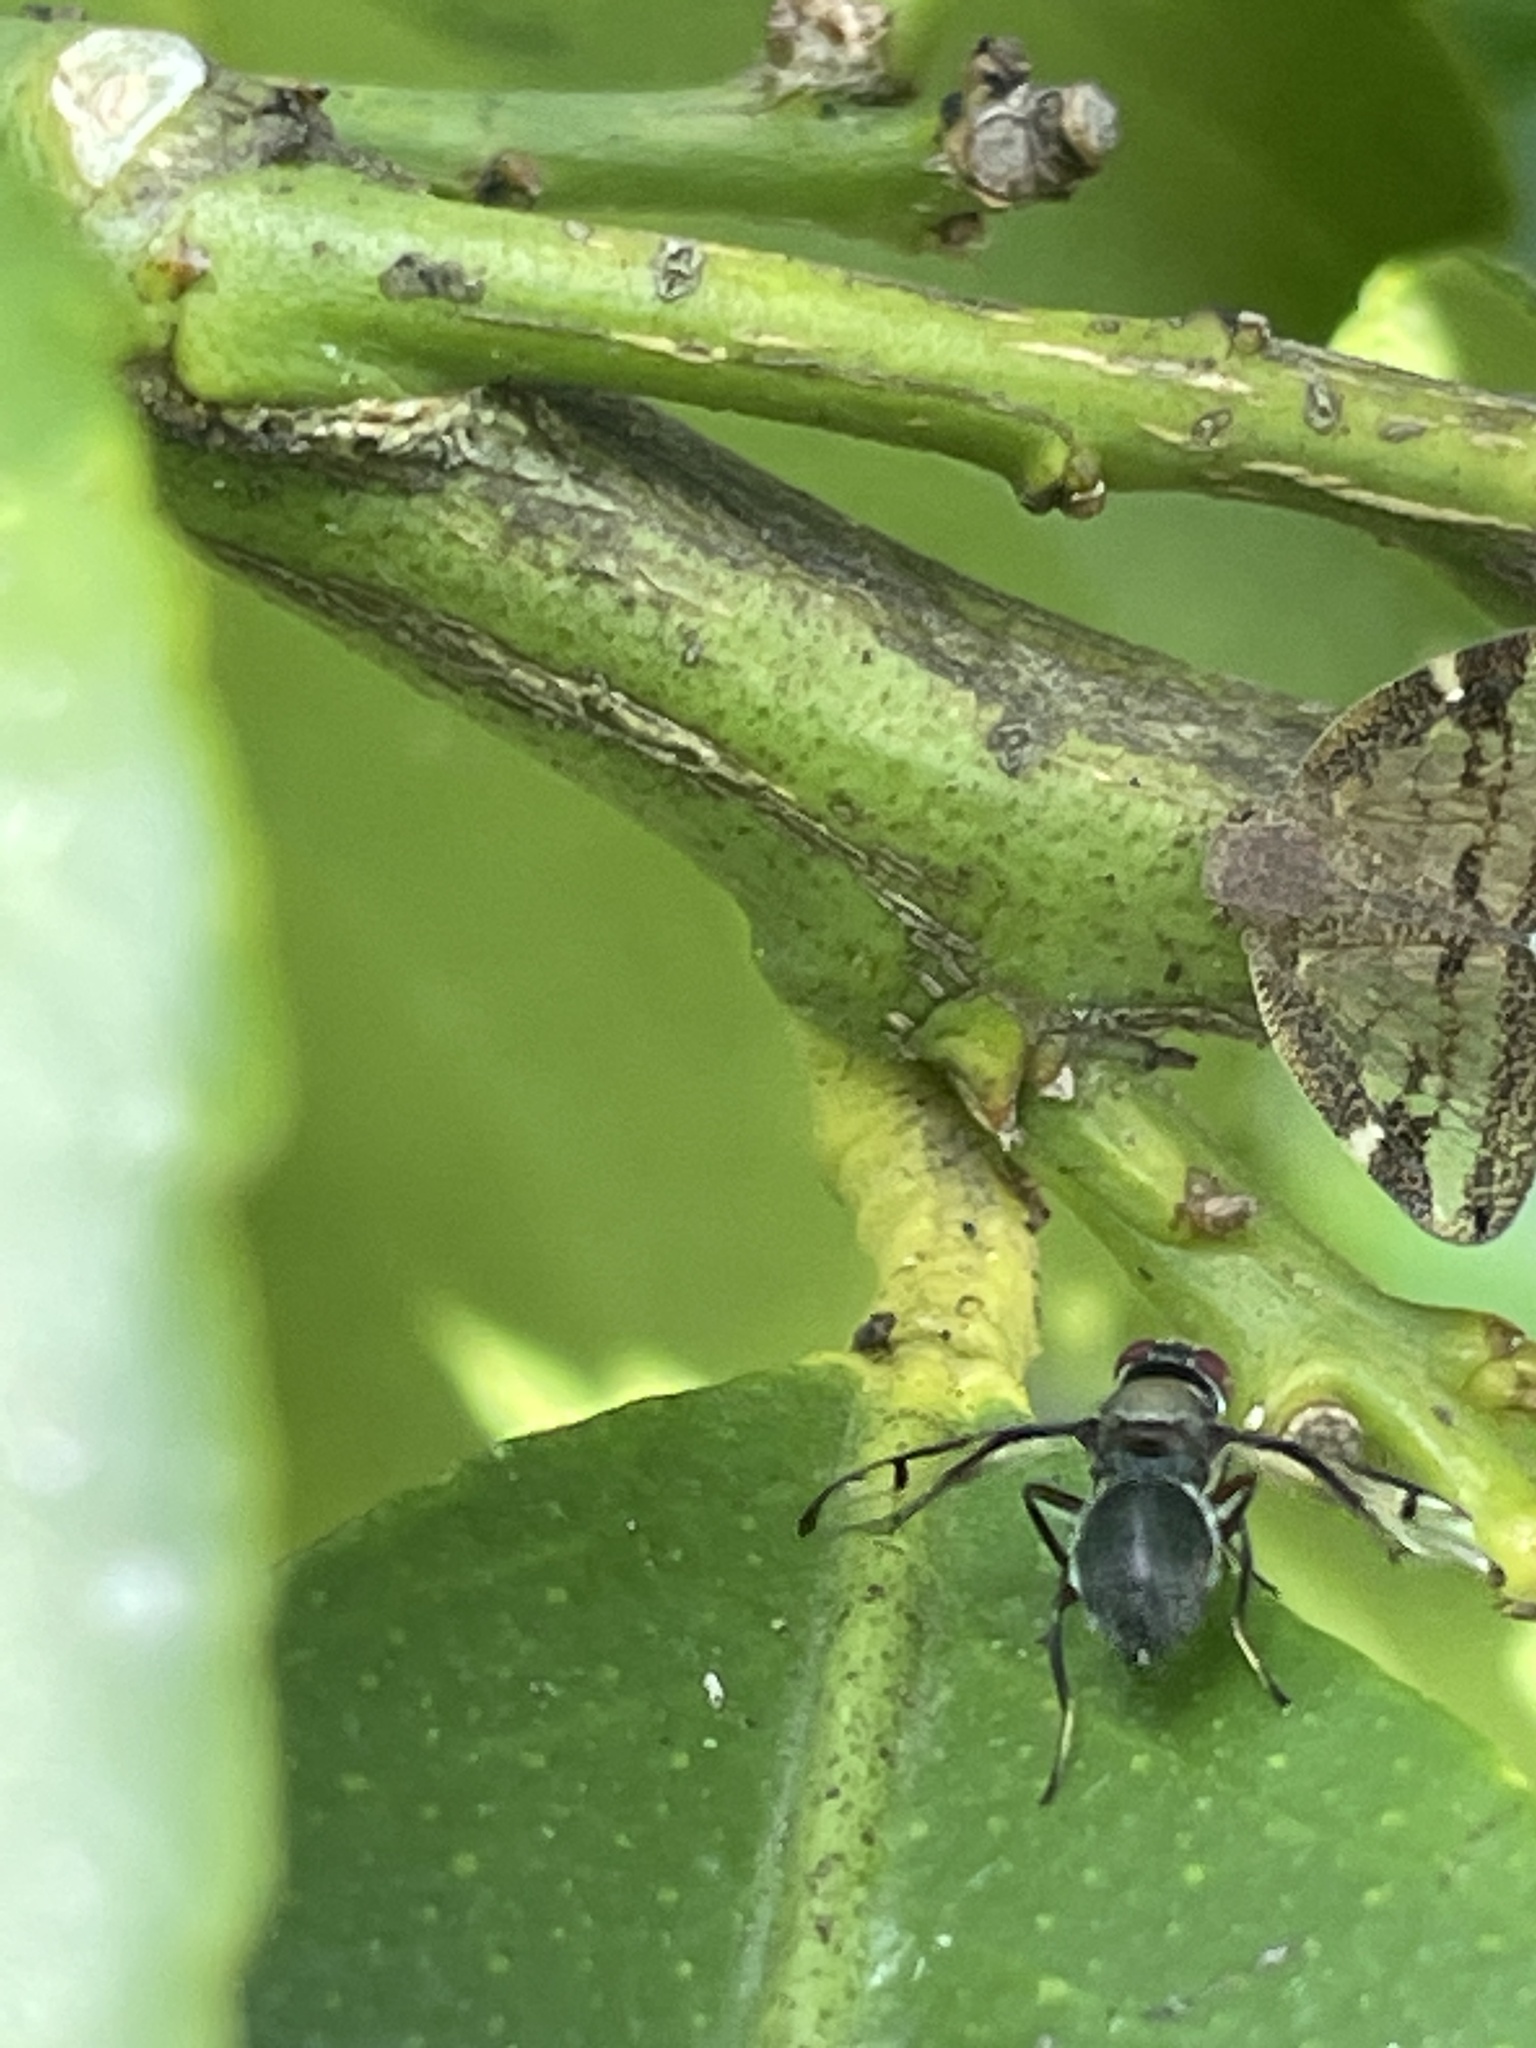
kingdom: Animalia
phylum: Arthropoda
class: Insecta
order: Diptera
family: Platystomatidae
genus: Pogonortalis
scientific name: Pogonortalis doclea
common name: Boatman fly
